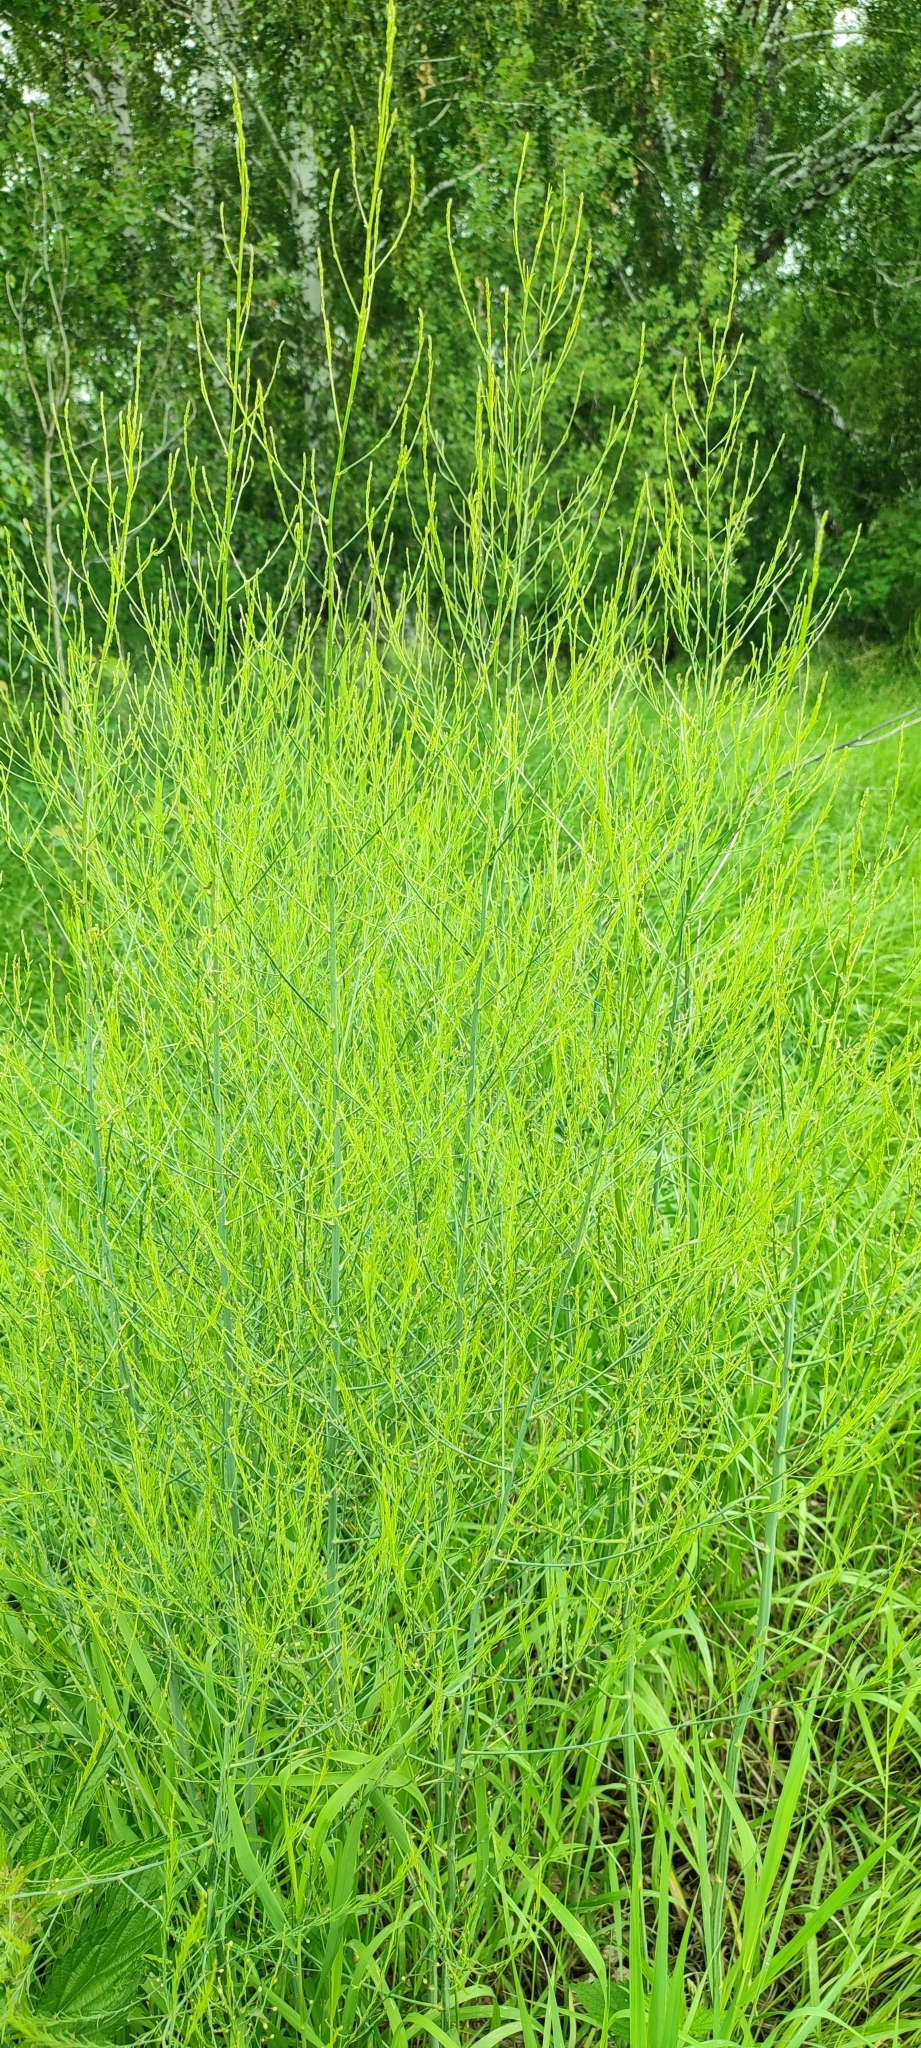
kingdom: Plantae
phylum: Tracheophyta
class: Liliopsida
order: Asparagales
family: Asparagaceae
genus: Asparagus
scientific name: Asparagus officinalis
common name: Garden asparagus
